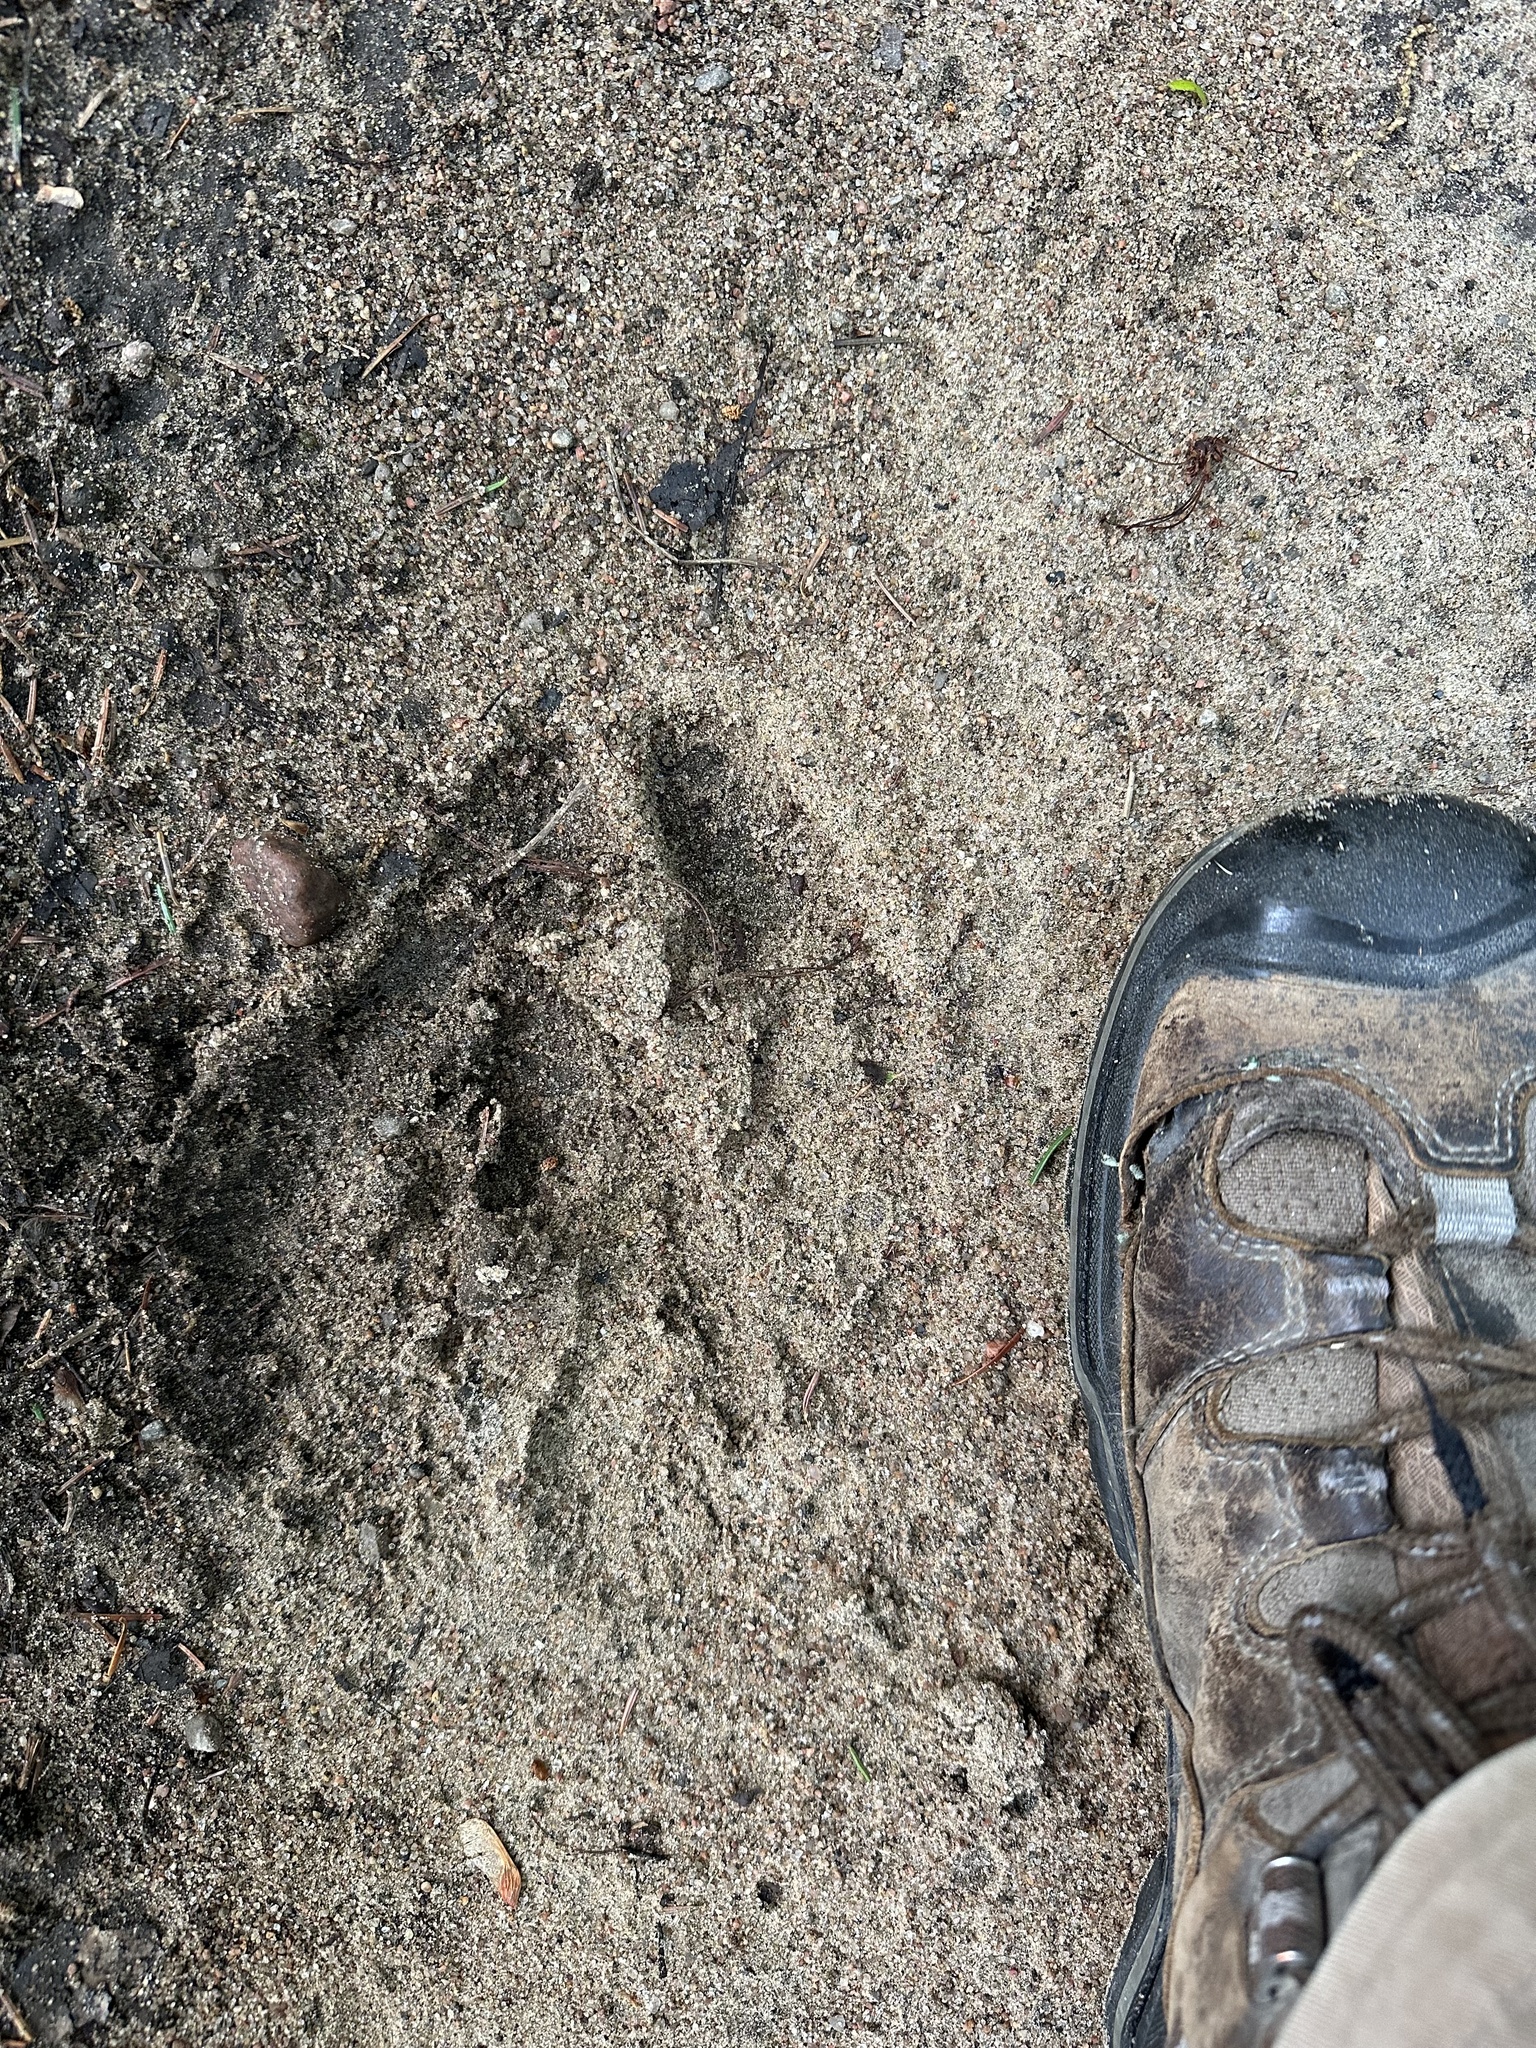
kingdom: Animalia
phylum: Chordata
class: Mammalia
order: Artiodactyla
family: Cervidae
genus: Alces
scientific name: Alces alces
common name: Moose
